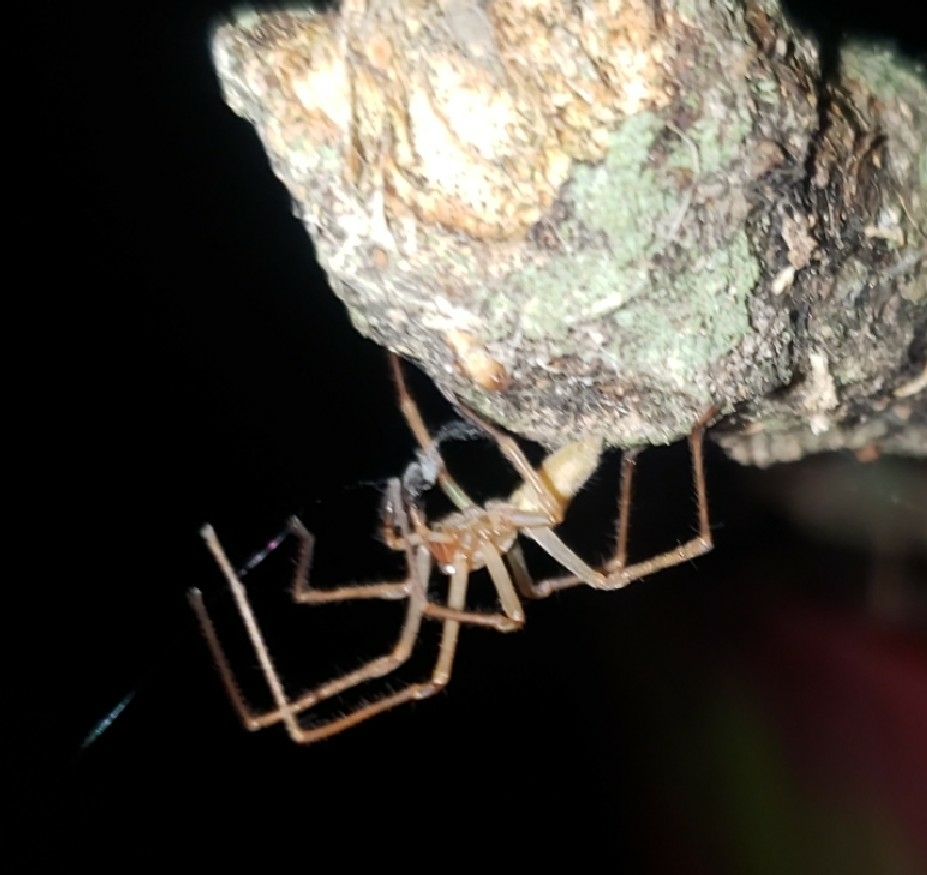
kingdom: Animalia
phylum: Arthropoda
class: Arachnida
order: Araneae
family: Cheiracanthiidae
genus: Cheiracanthium
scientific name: Cheiracanthium
